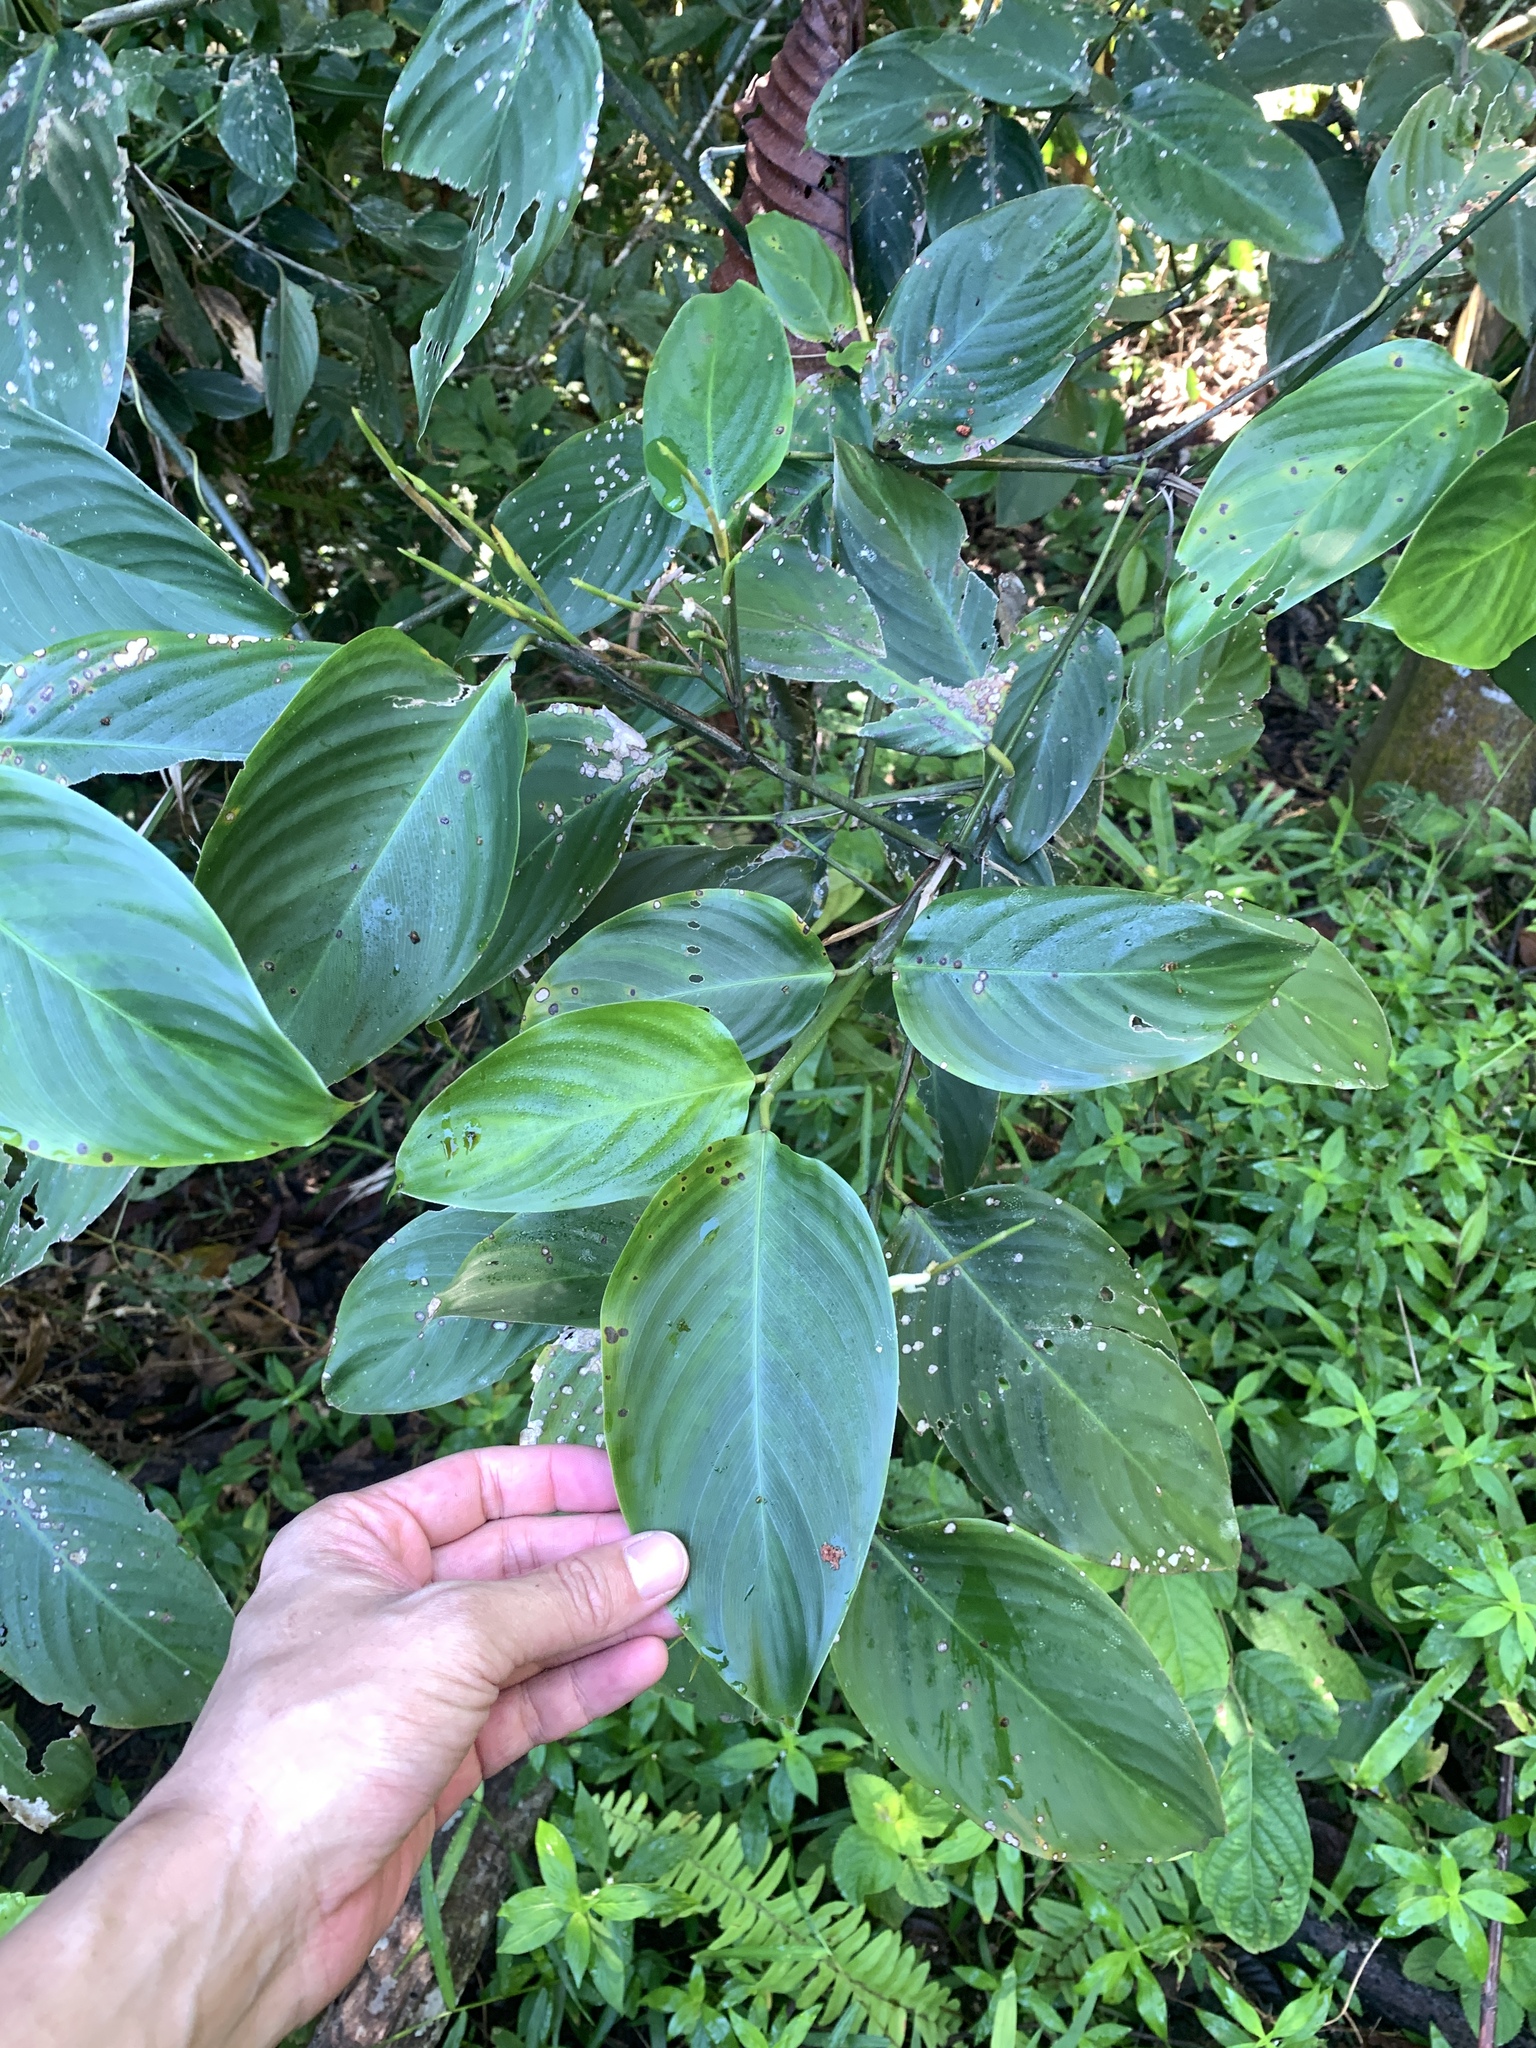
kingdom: Plantae
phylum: Tracheophyta
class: Liliopsida
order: Zingiberales
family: Marantaceae
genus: Donax
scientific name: Donax canniformis
